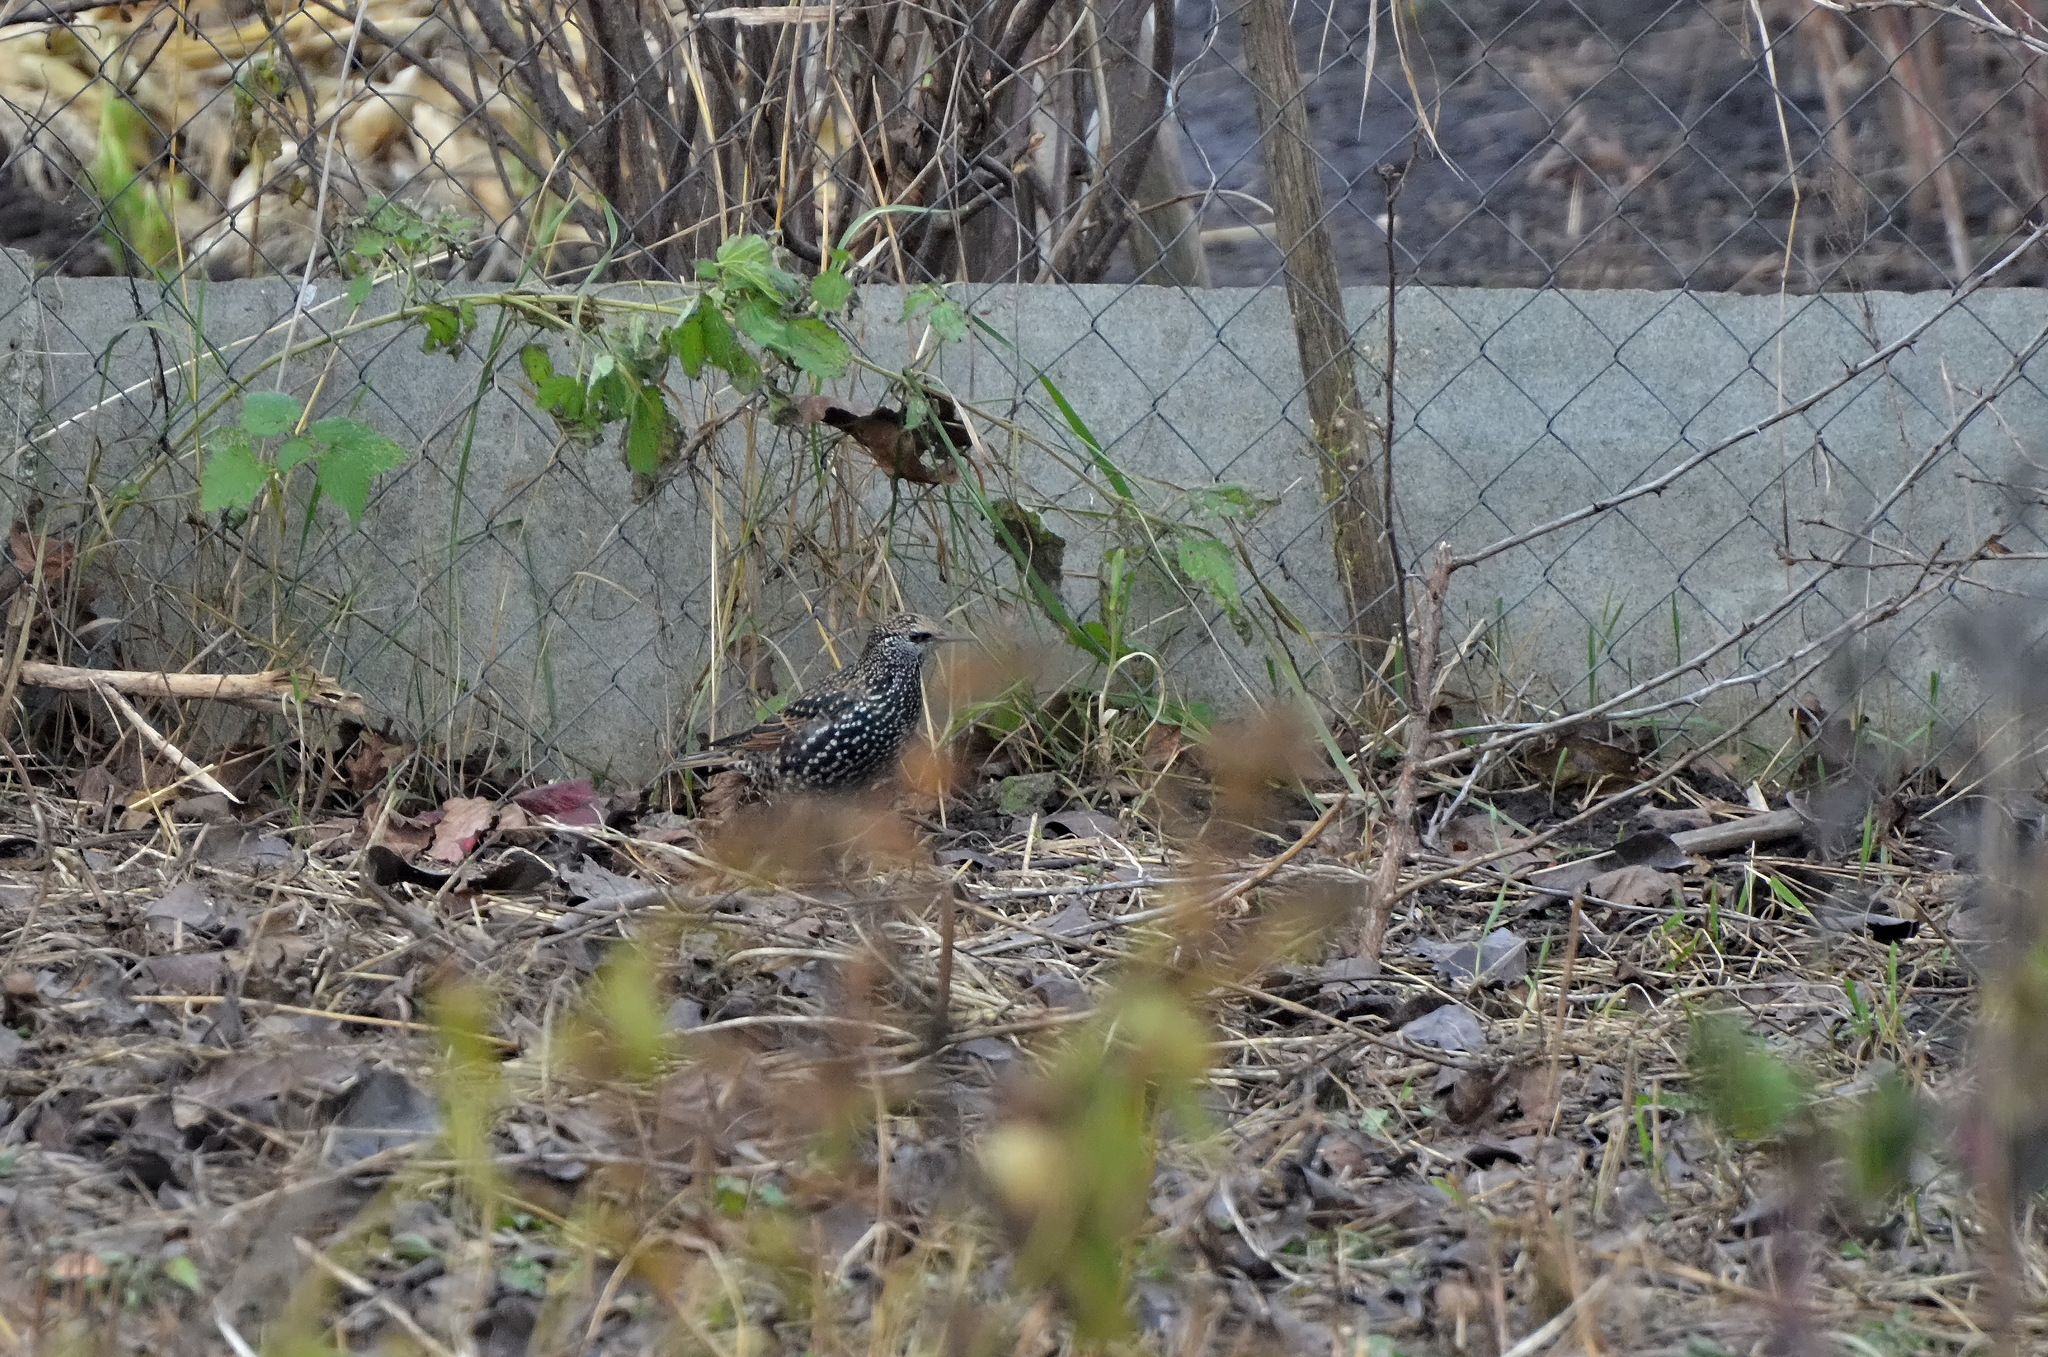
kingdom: Animalia
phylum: Chordata
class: Aves
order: Passeriformes
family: Sturnidae
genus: Sturnus
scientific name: Sturnus vulgaris
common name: Common starling
